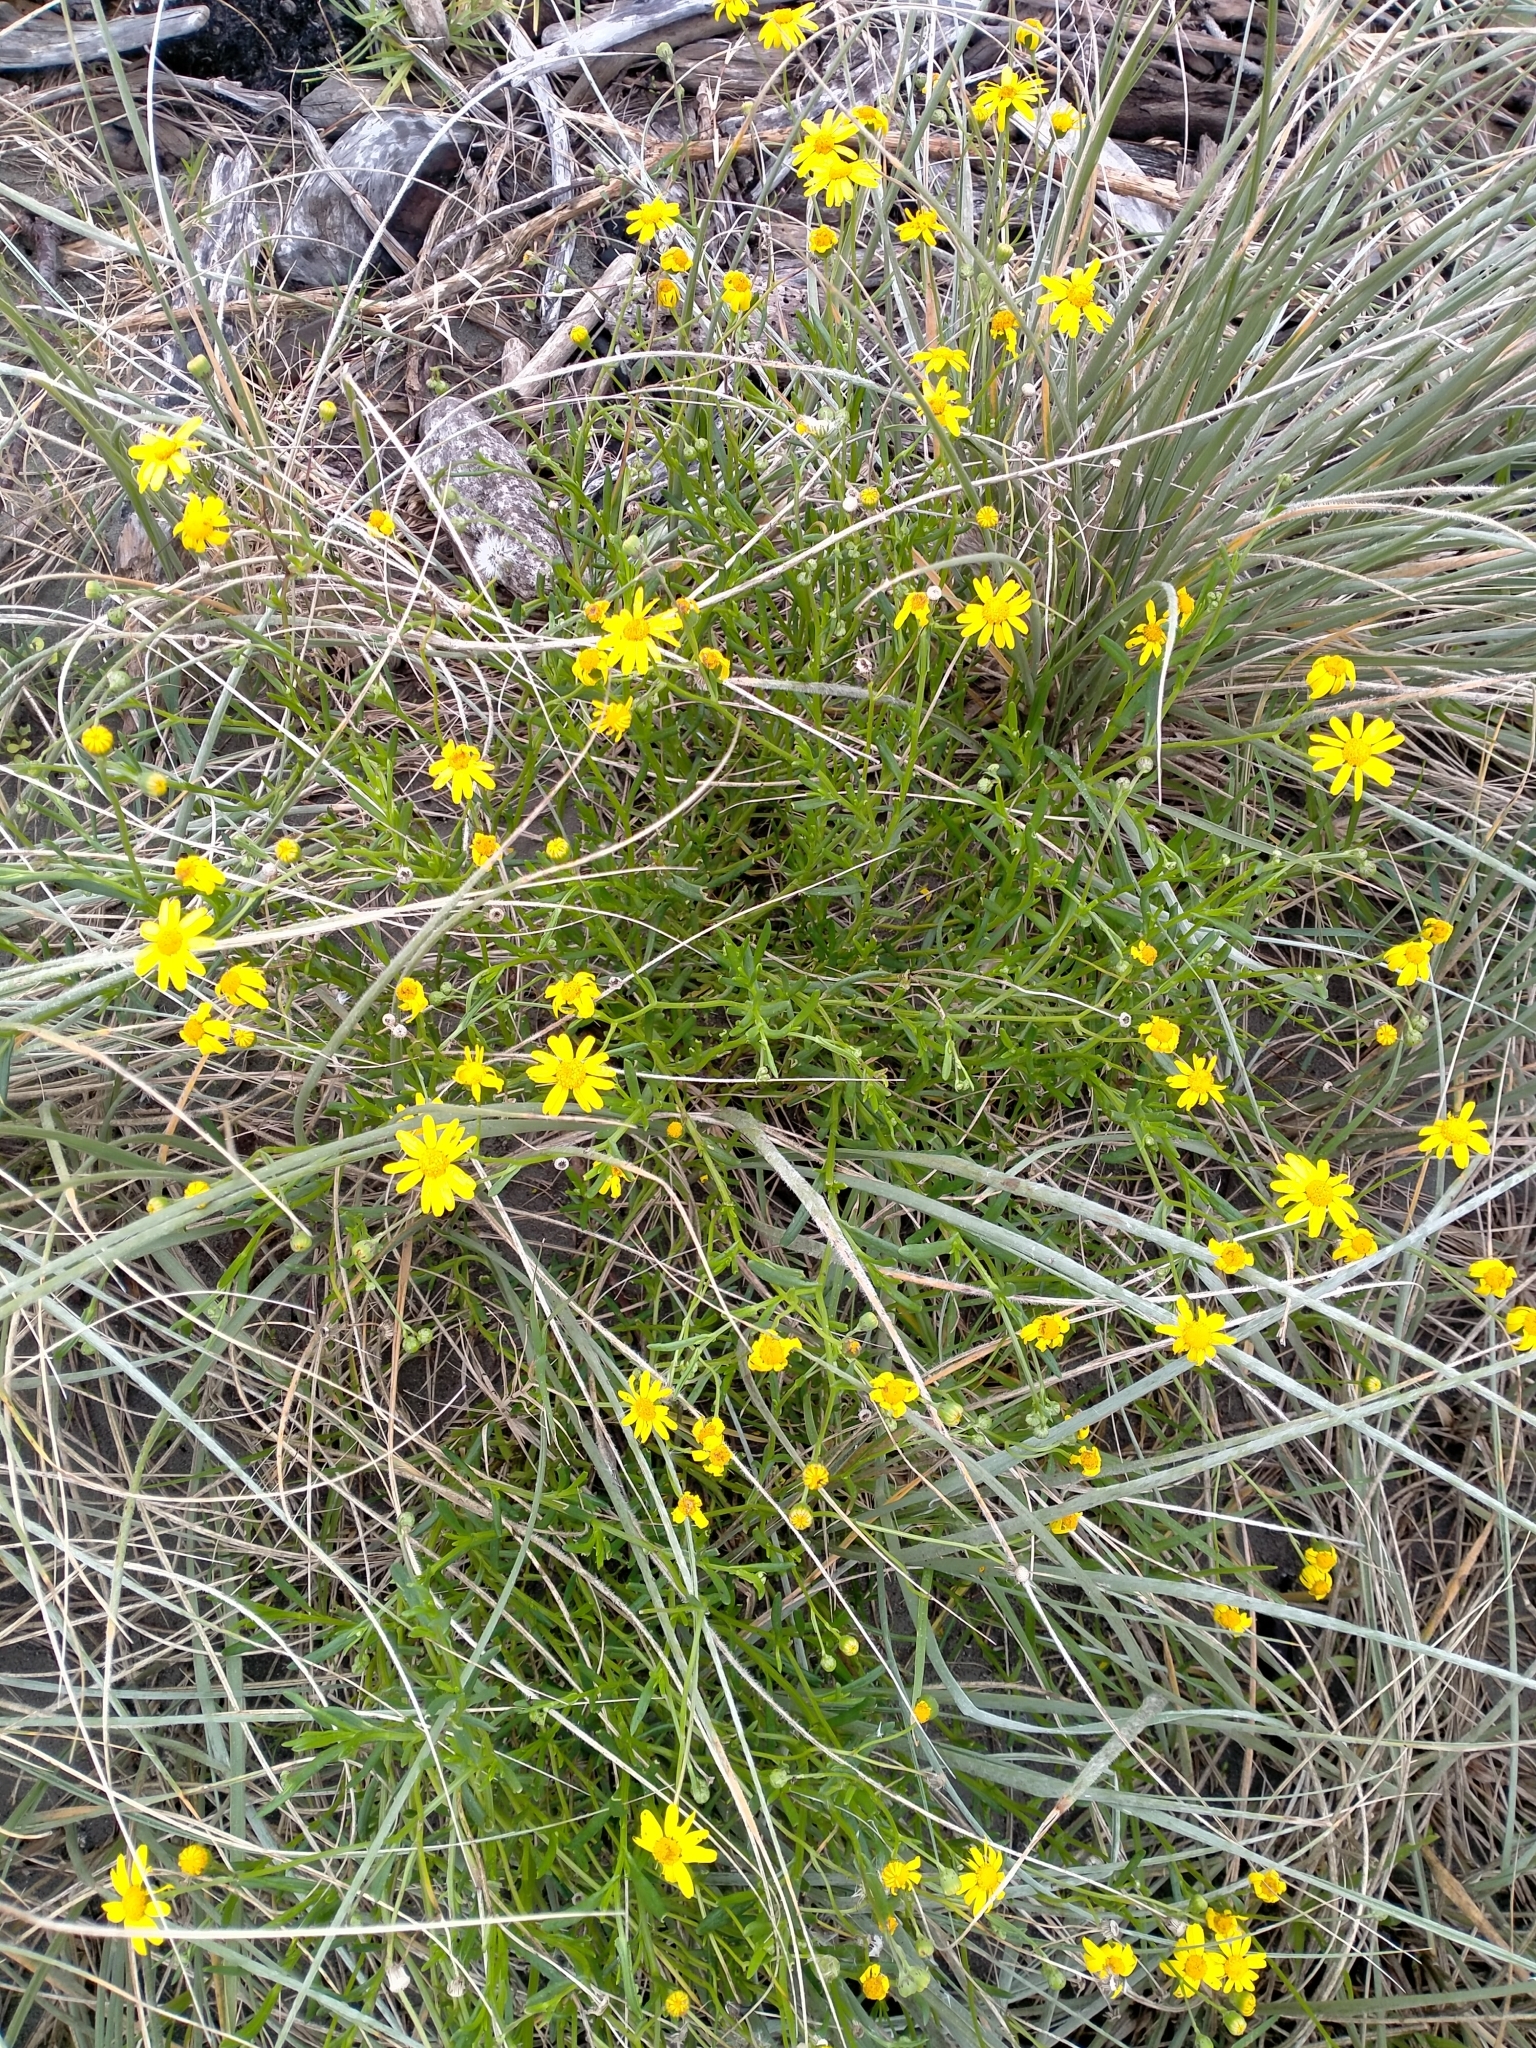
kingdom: Plantae
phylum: Tracheophyta
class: Magnoliopsida
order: Asterales
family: Asteraceae
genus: Senecio
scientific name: Senecio skirrhodon
